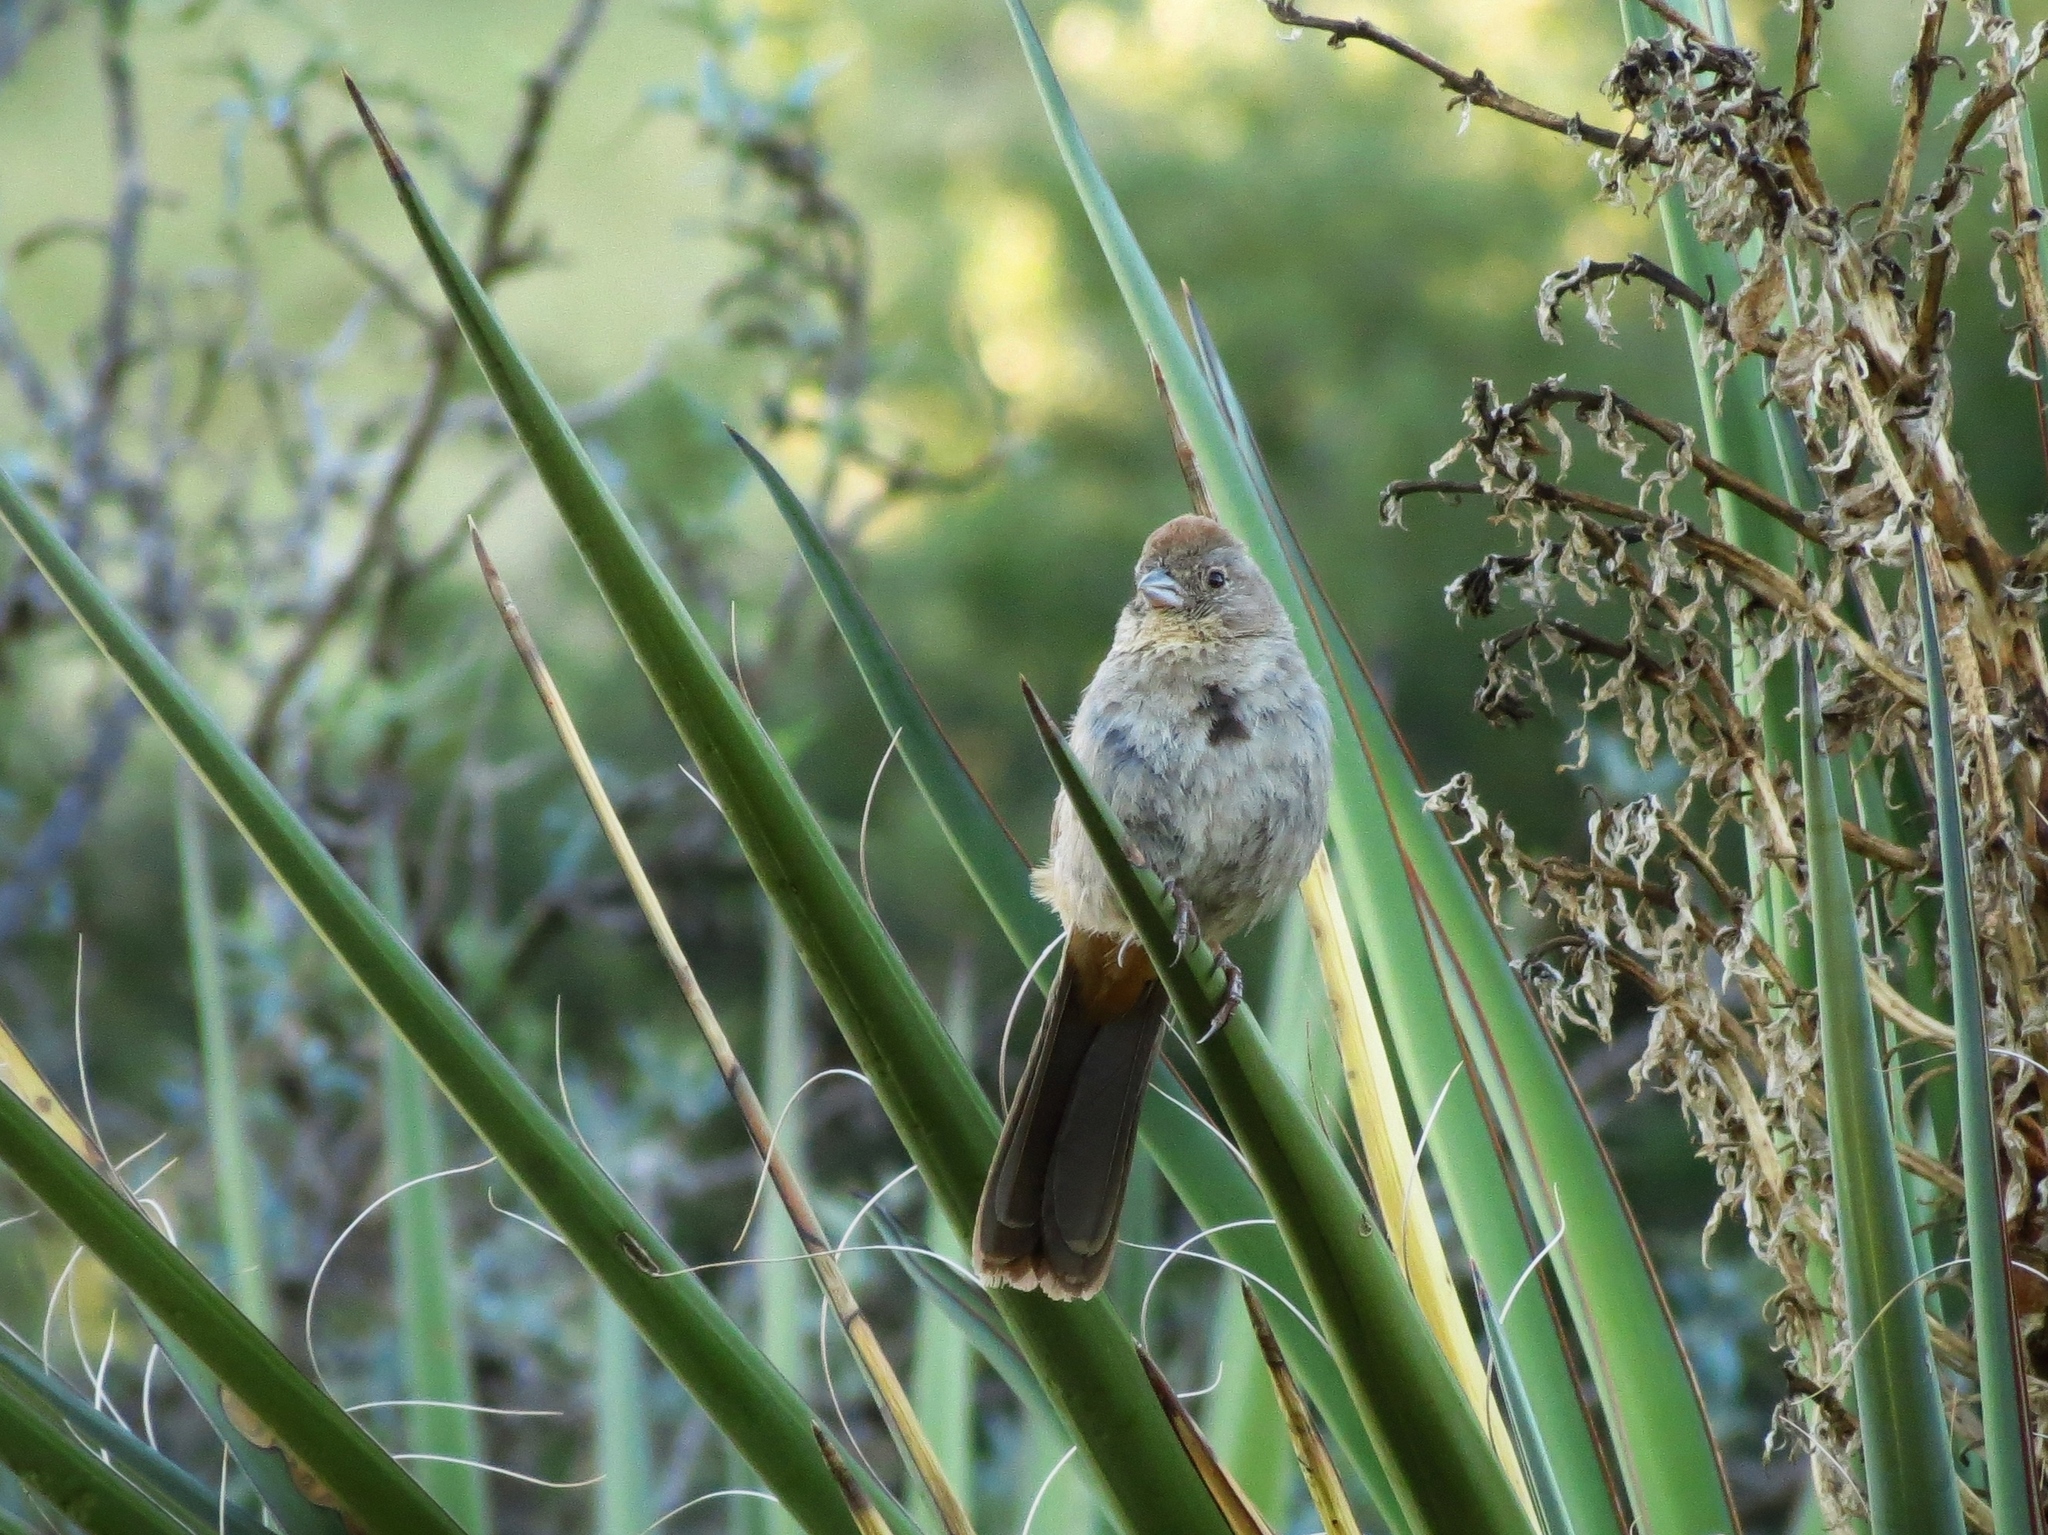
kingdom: Animalia
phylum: Chordata
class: Aves
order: Passeriformes
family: Passerellidae
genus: Melozone
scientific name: Melozone fusca
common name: Canyon towhee
